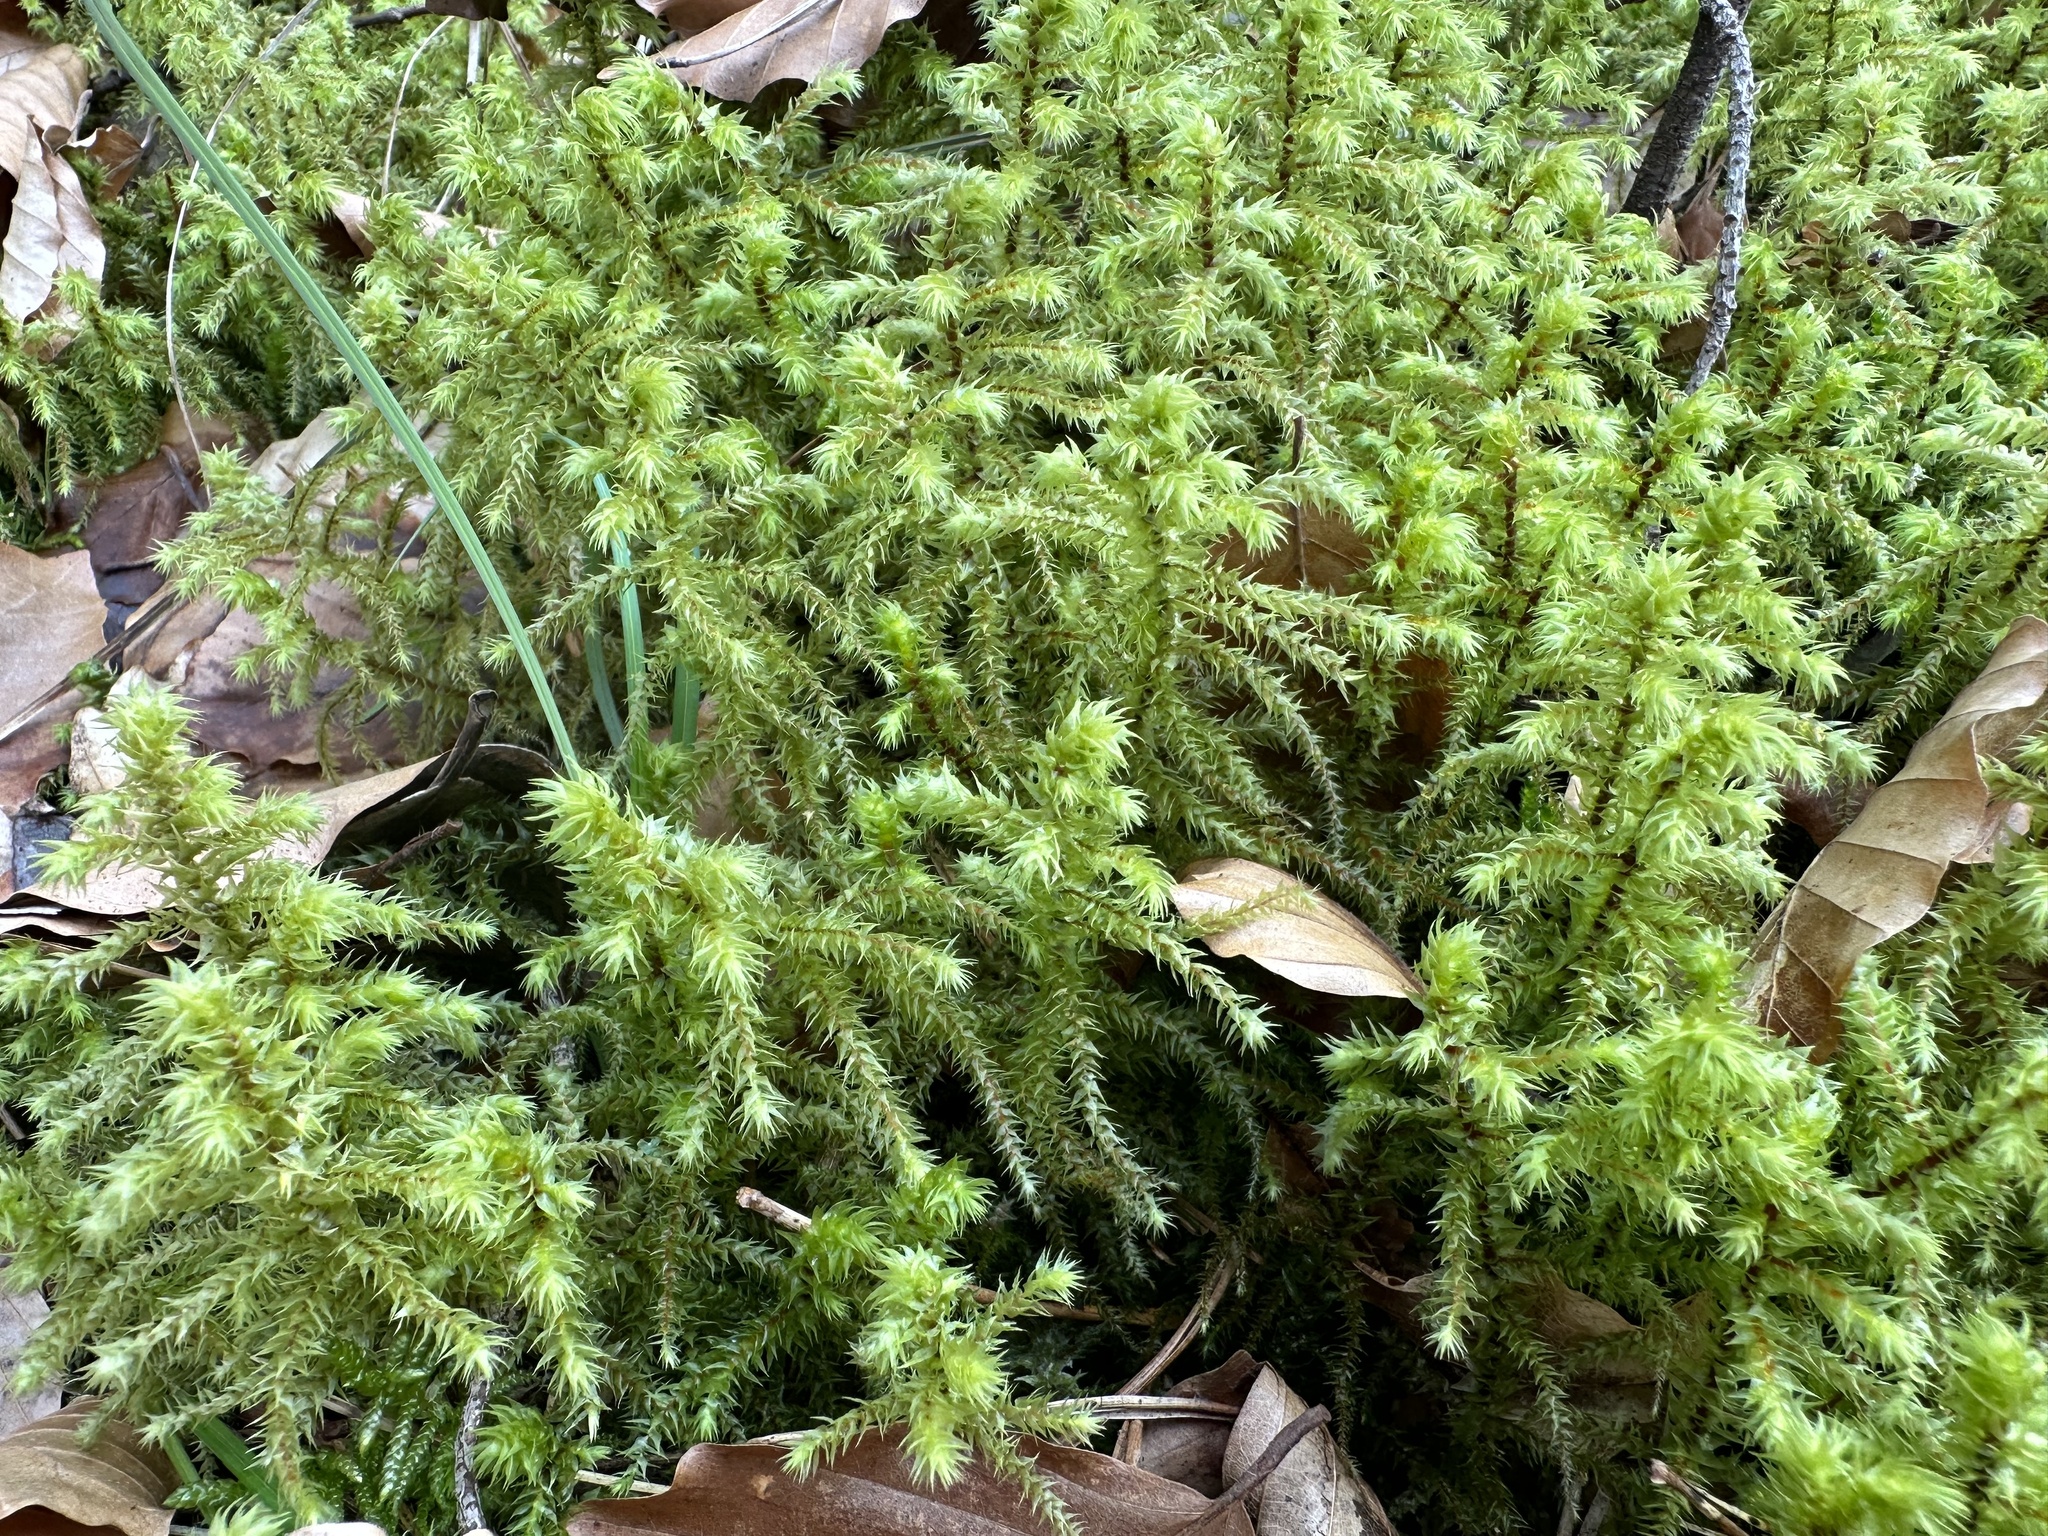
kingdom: Plantae
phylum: Bryophyta
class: Bryopsida
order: Hypnales
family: Hylocomiaceae
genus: Hylocomiadelphus
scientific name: Hylocomiadelphus triquetrus
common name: Rough goose neck moss
